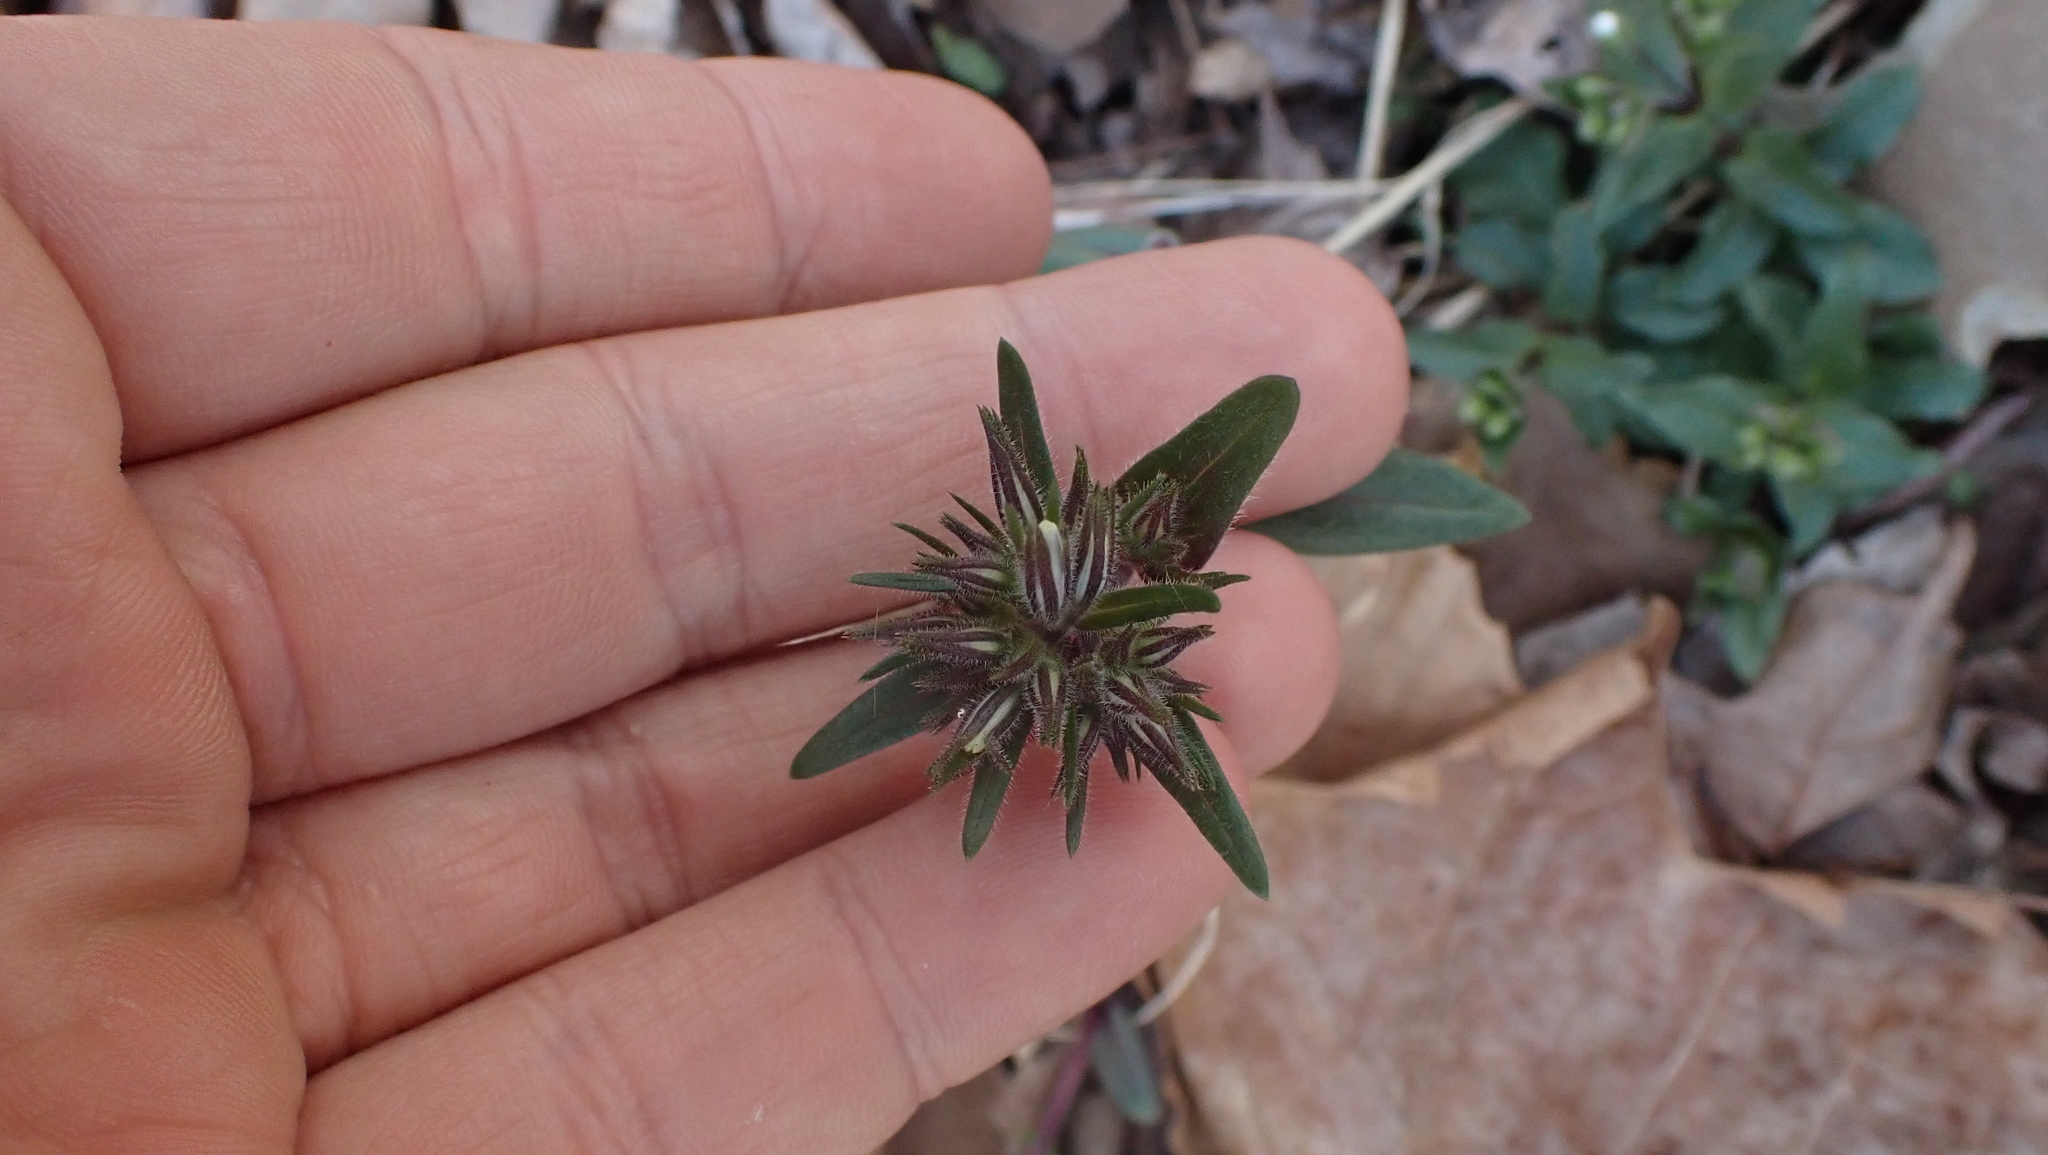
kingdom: Plantae
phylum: Tracheophyta
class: Magnoliopsida
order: Ericales
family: Polemoniaceae
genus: Phlox
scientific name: Phlox divaricata
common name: Blue phlox
